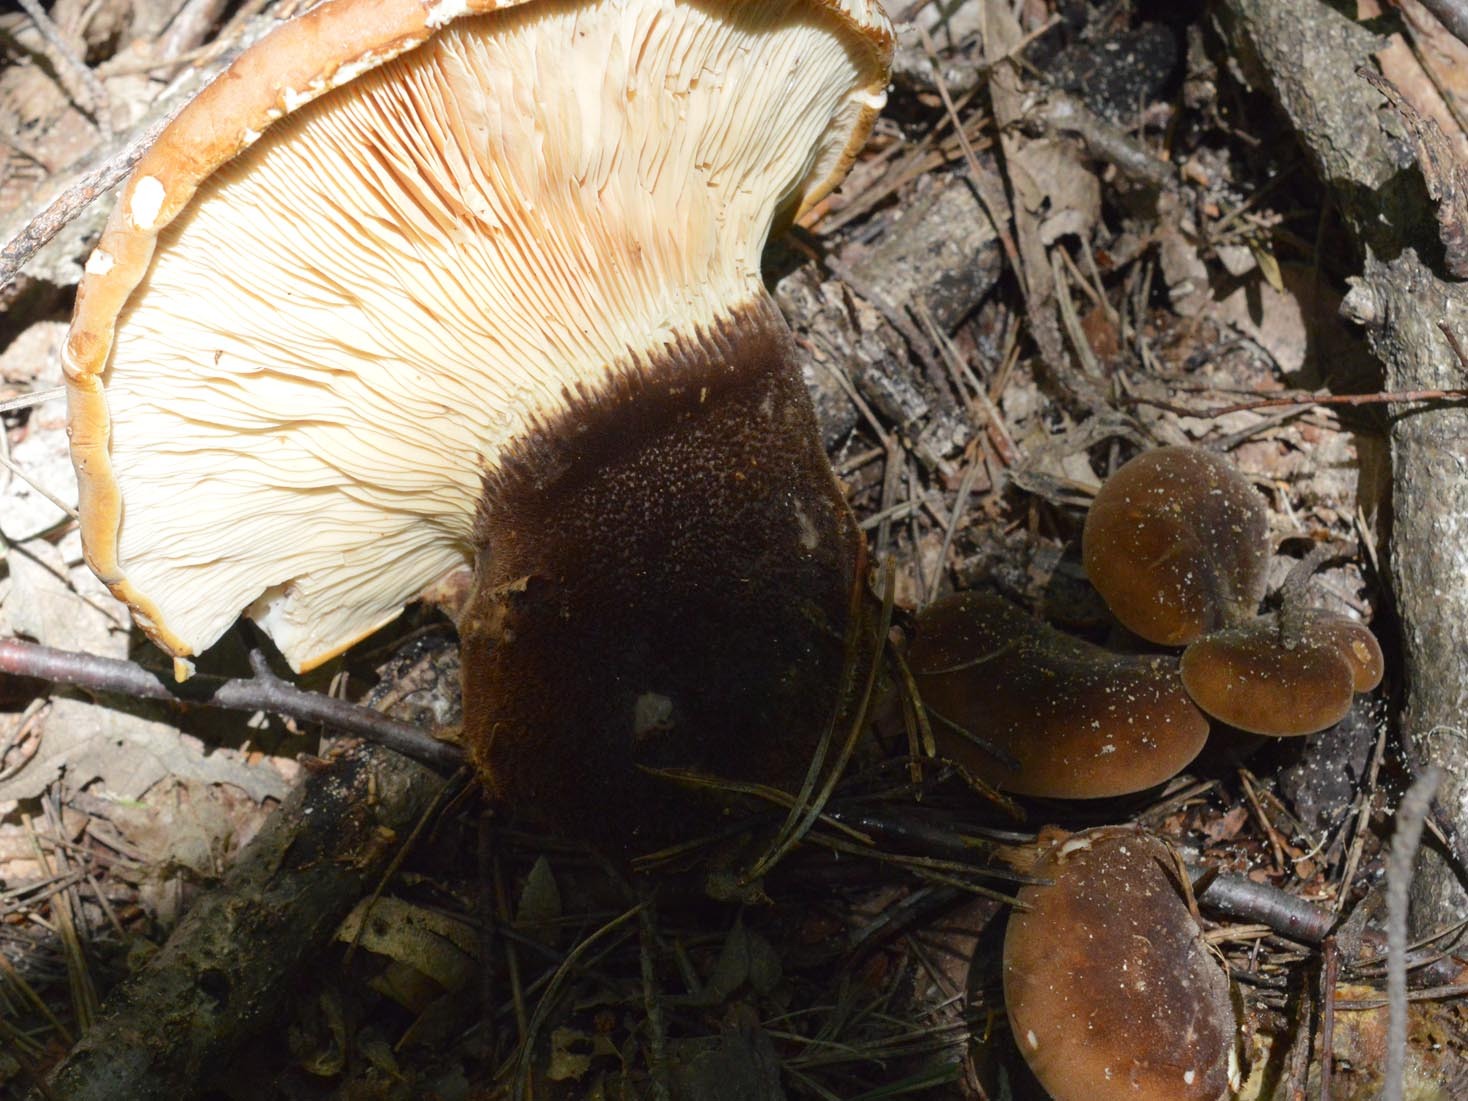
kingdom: Fungi
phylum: Basidiomycota
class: Agaricomycetes
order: Boletales
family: Tapinellaceae
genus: Tapinella
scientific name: Tapinella atrotomentosa
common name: Velvet rollrim
